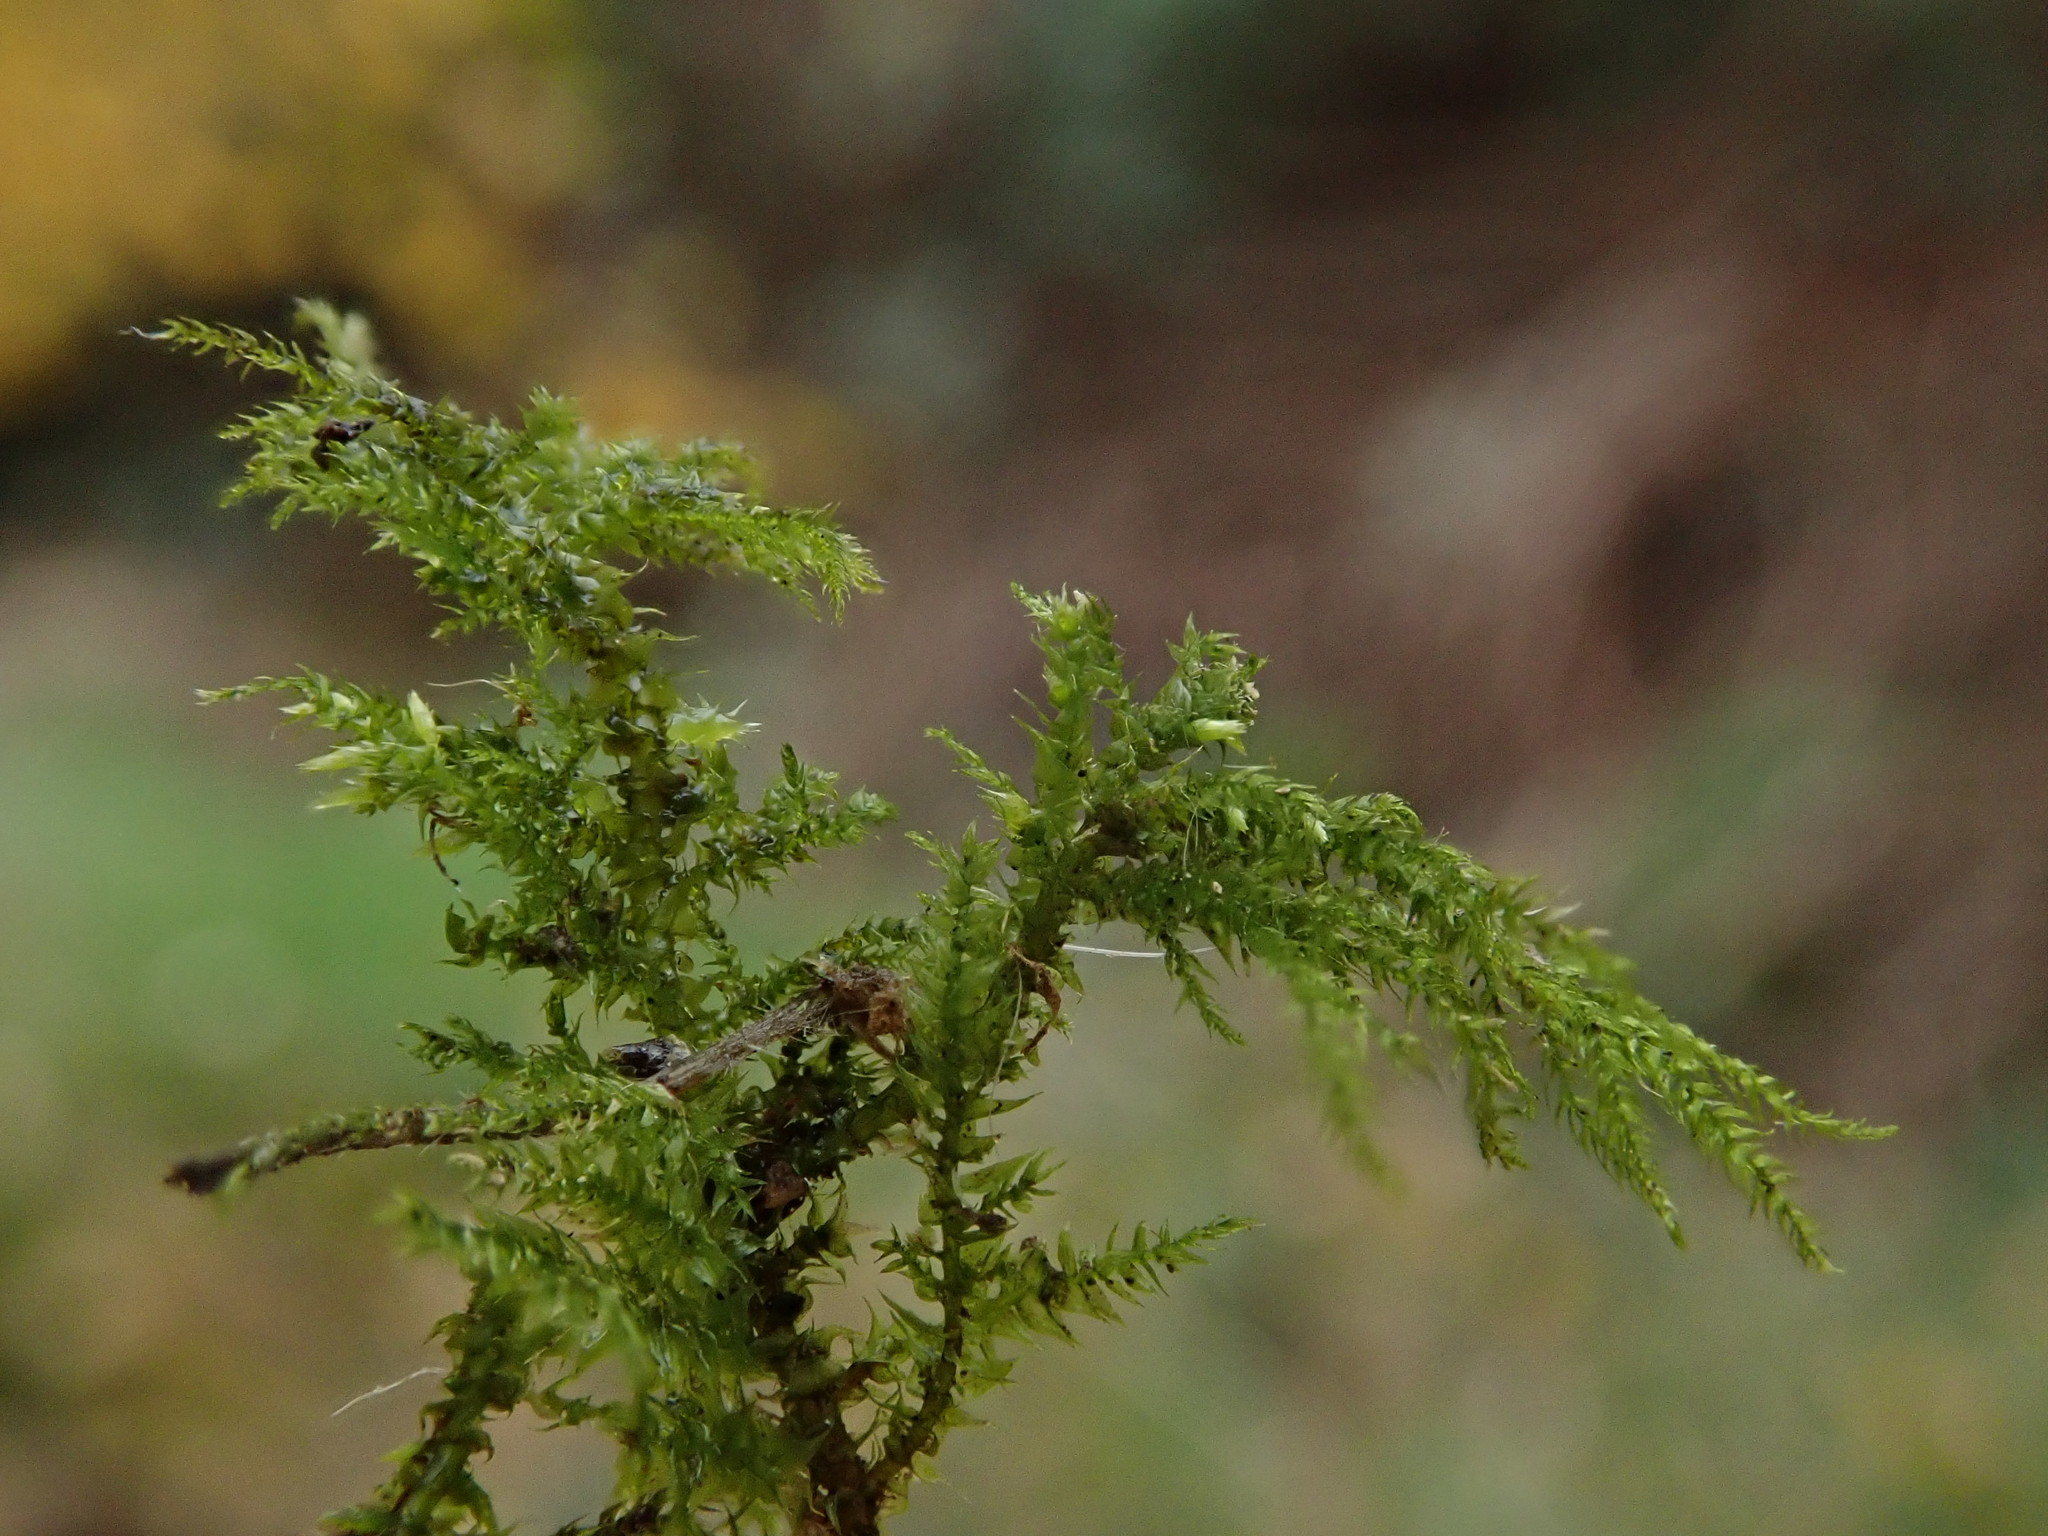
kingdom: Plantae
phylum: Bryophyta
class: Bryopsida
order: Hypnales
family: Neckeraceae
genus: Thamnobryum
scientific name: Thamnobryum alopecurum
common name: Fox-tail feather-moss
